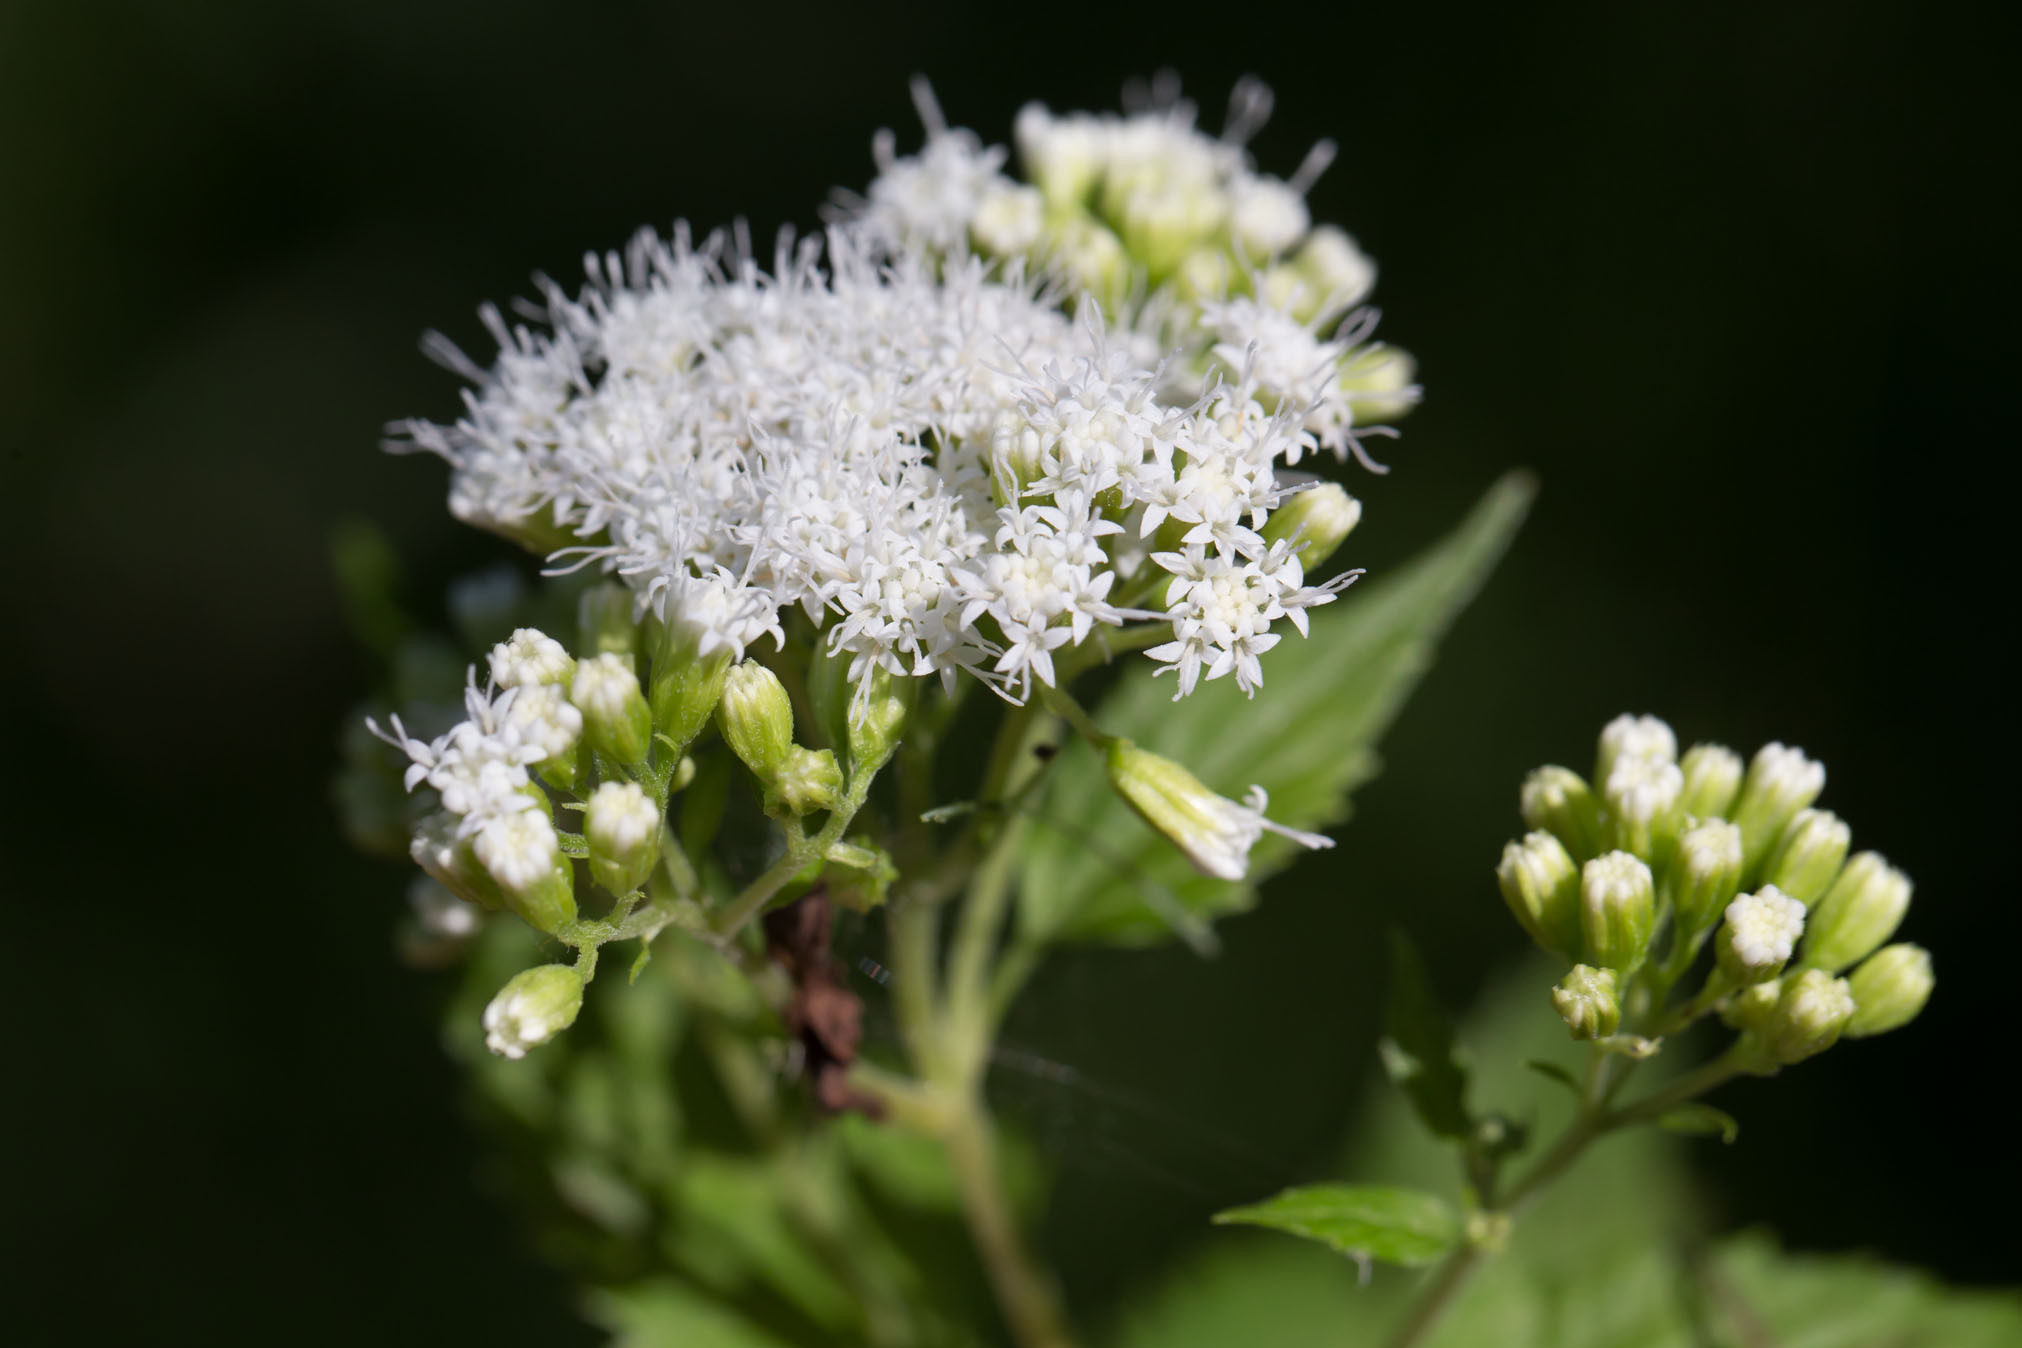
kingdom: Plantae
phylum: Tracheophyta
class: Magnoliopsida
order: Asterales
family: Asteraceae
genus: Ageratina
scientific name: Ageratina altissima
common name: White snakeroot
